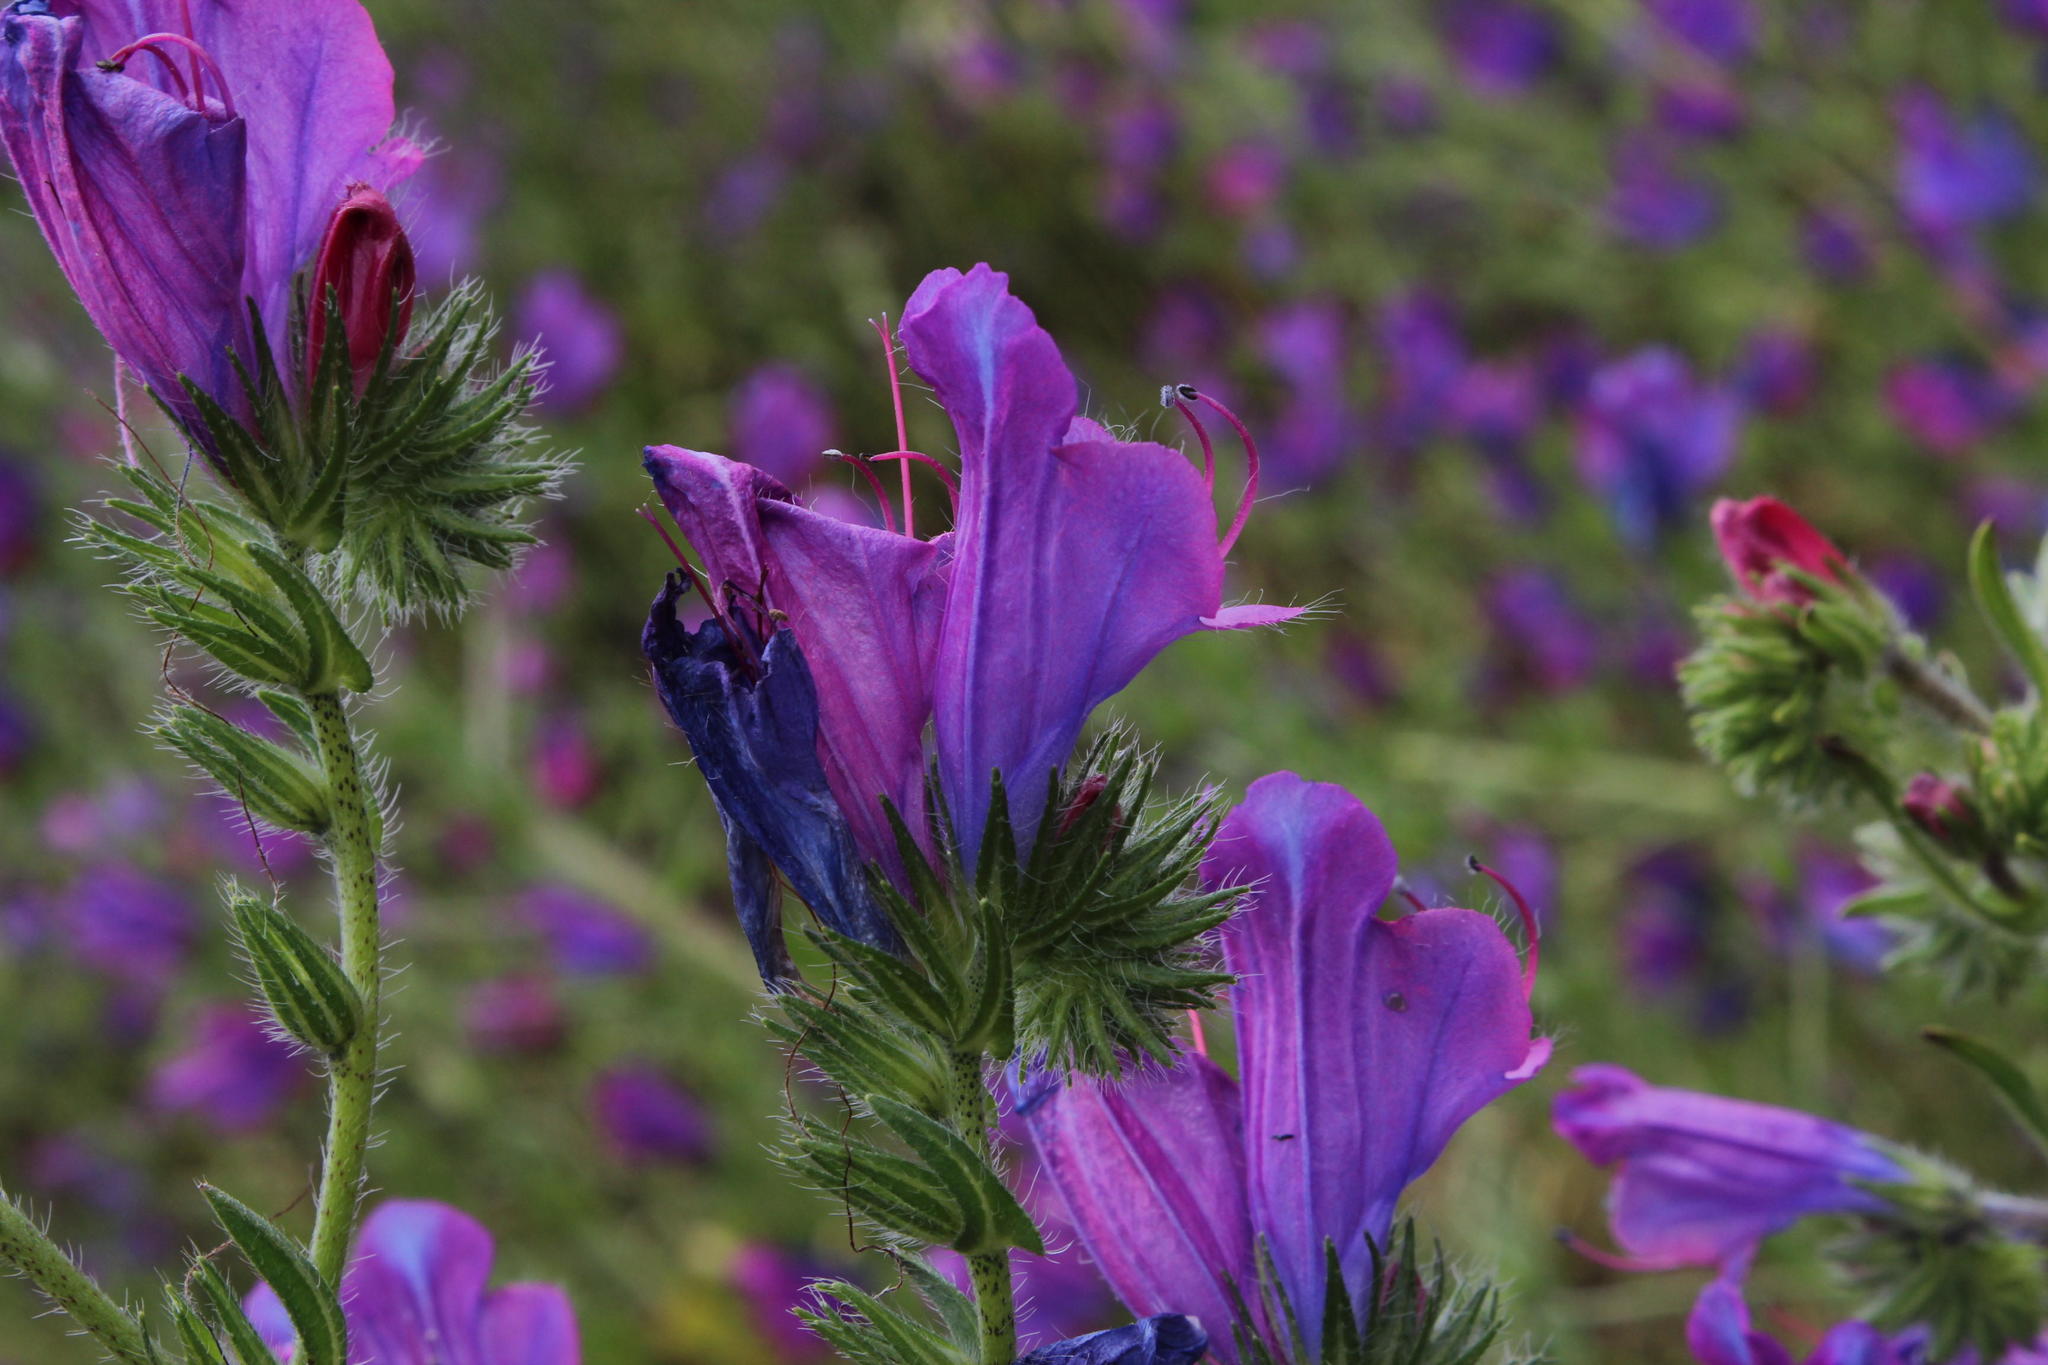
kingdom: Plantae
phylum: Tracheophyta
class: Magnoliopsida
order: Boraginales
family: Boraginaceae
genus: Echium
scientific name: Echium plantagineum
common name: Purple viper's-bugloss
